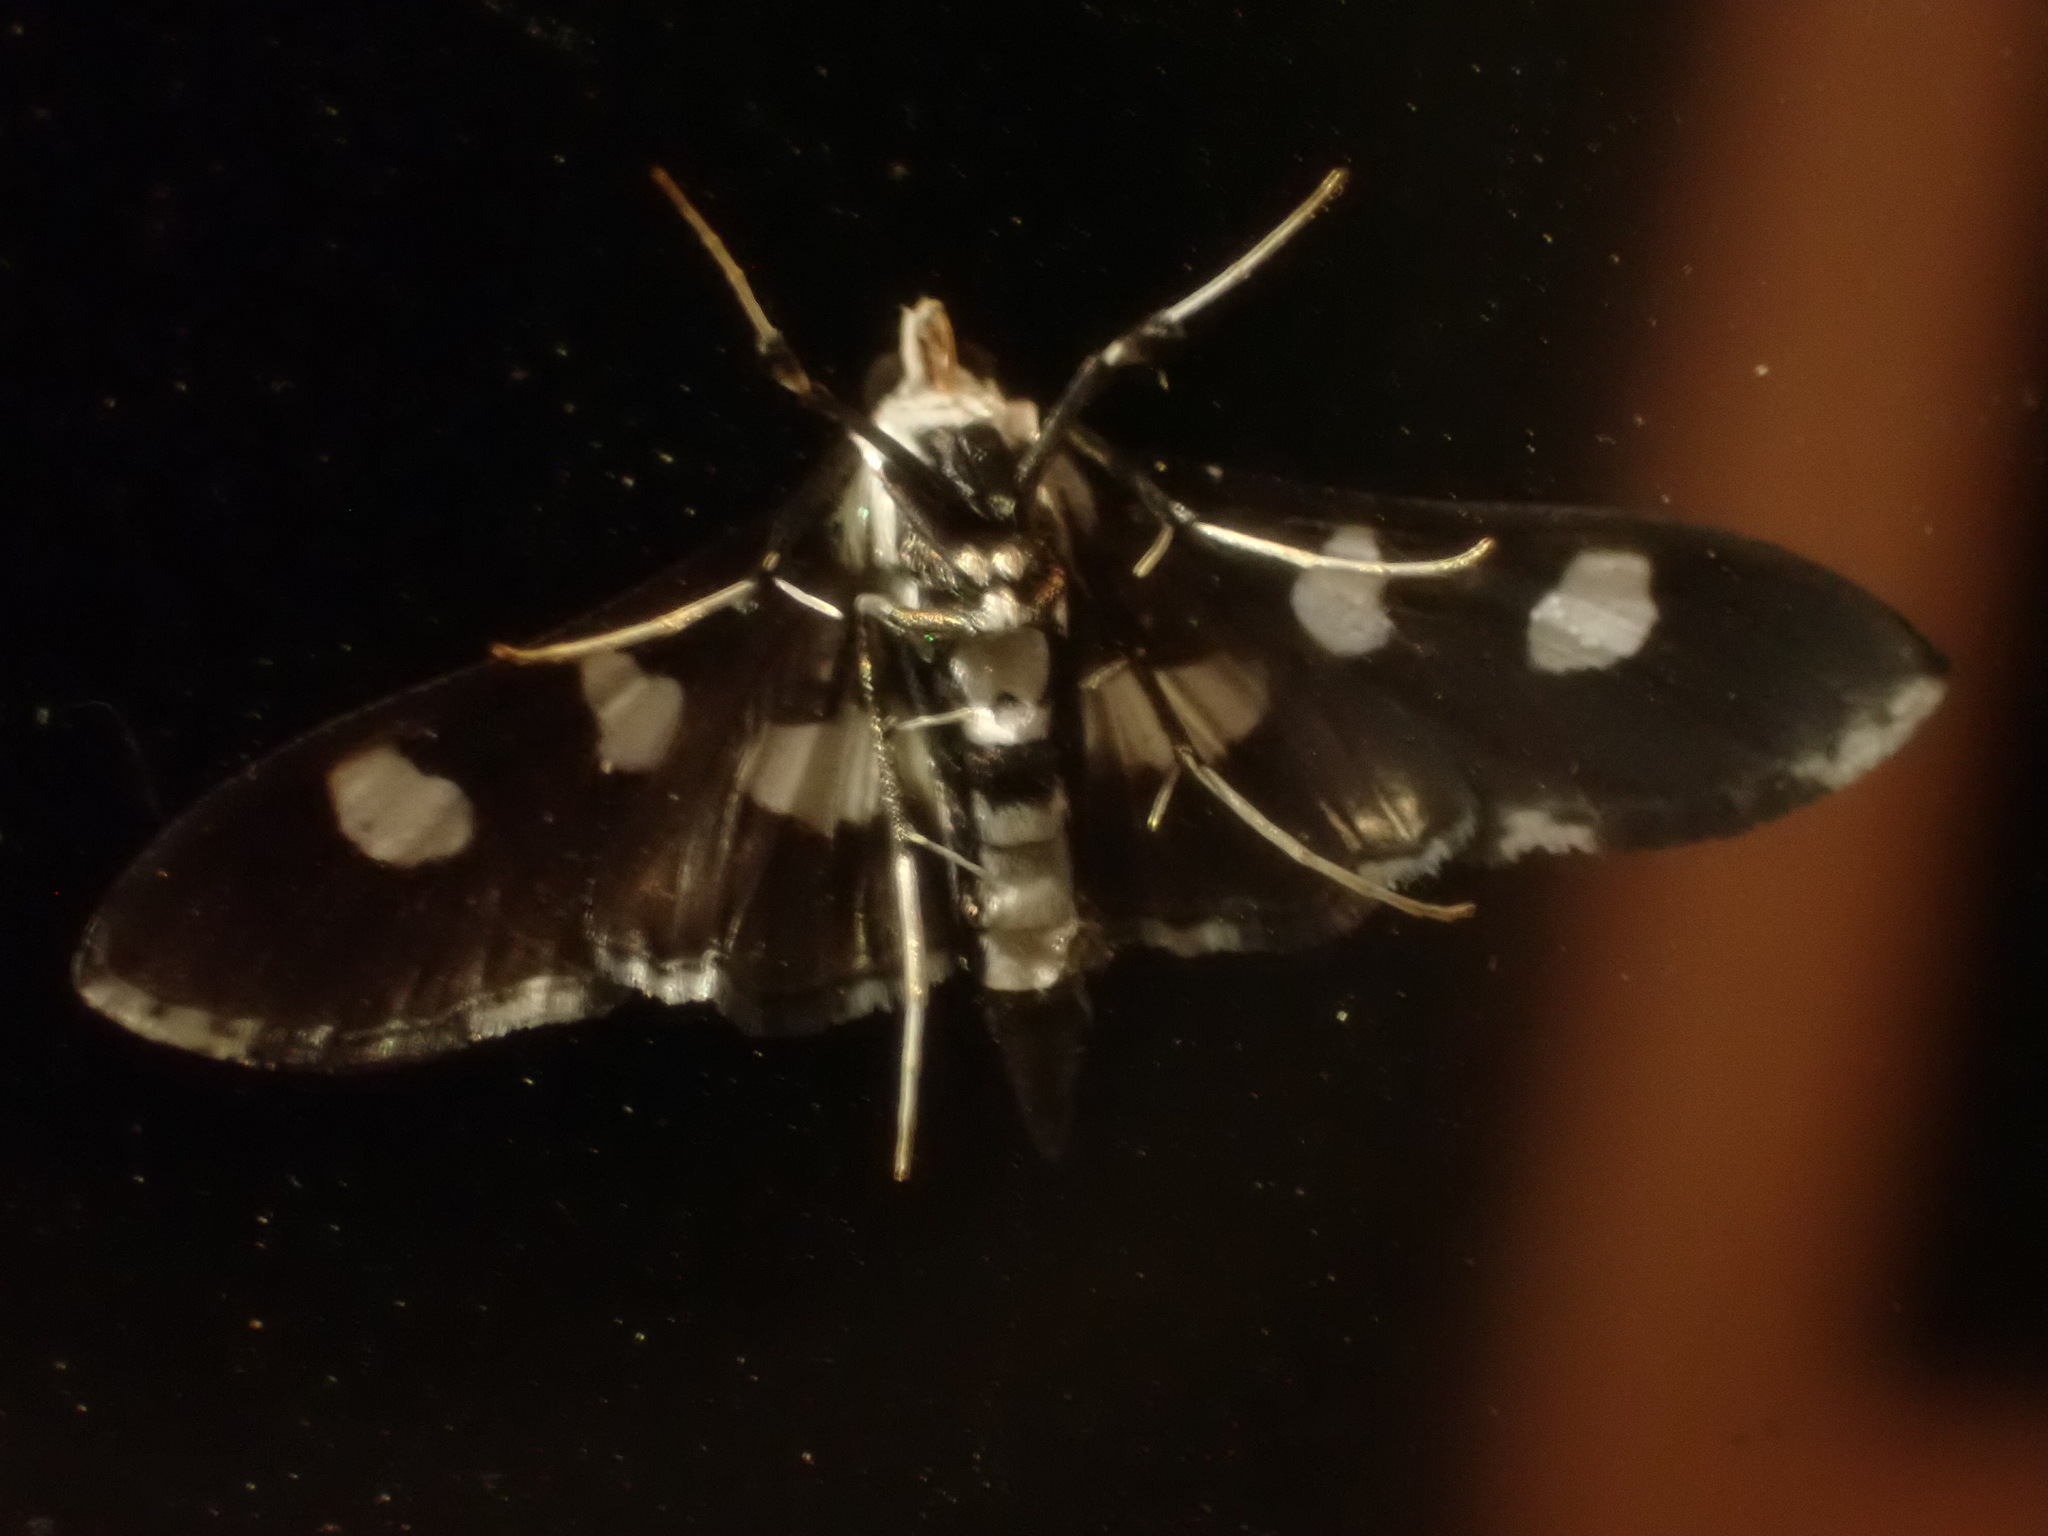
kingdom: Animalia
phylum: Arthropoda
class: Insecta
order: Lepidoptera
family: Crambidae
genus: Desmia
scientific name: Desmia funeralis
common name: Grape leaf folder moth
